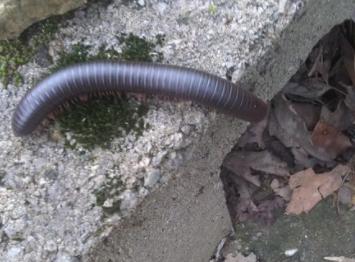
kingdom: Animalia
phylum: Arthropoda
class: Diplopoda
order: Spirobolida
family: Spirobolidae
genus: Narceus
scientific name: Narceus
